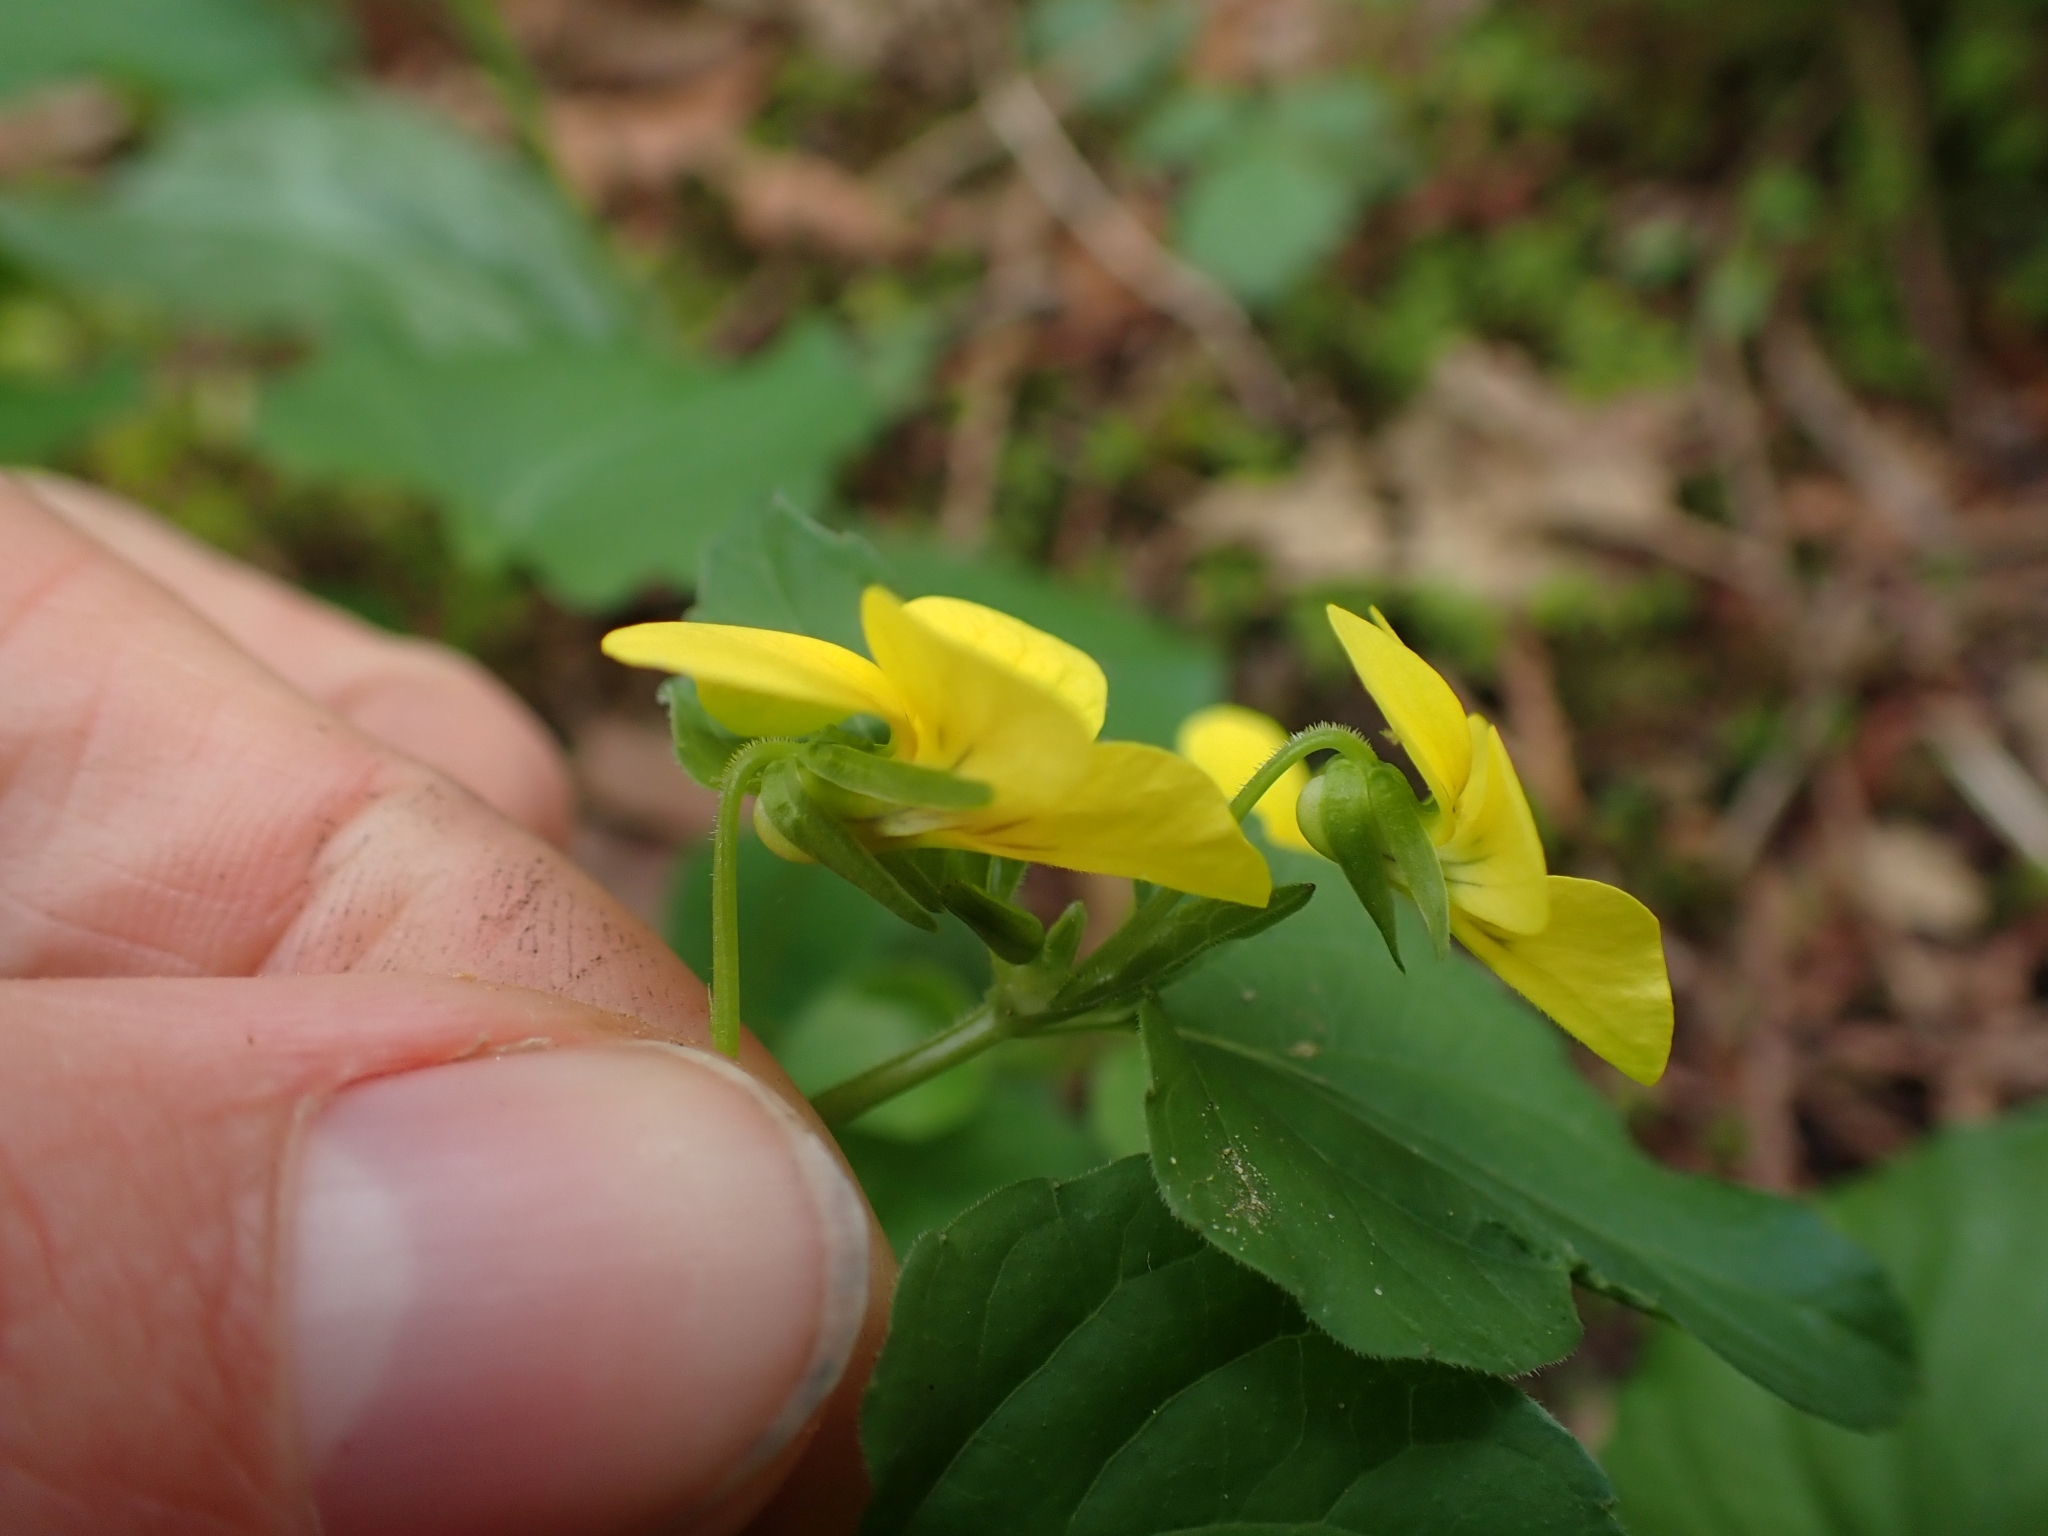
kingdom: Plantae
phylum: Tracheophyta
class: Magnoliopsida
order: Malpighiales
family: Violaceae
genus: Viola
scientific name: Viola glabella
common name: Stream violet
